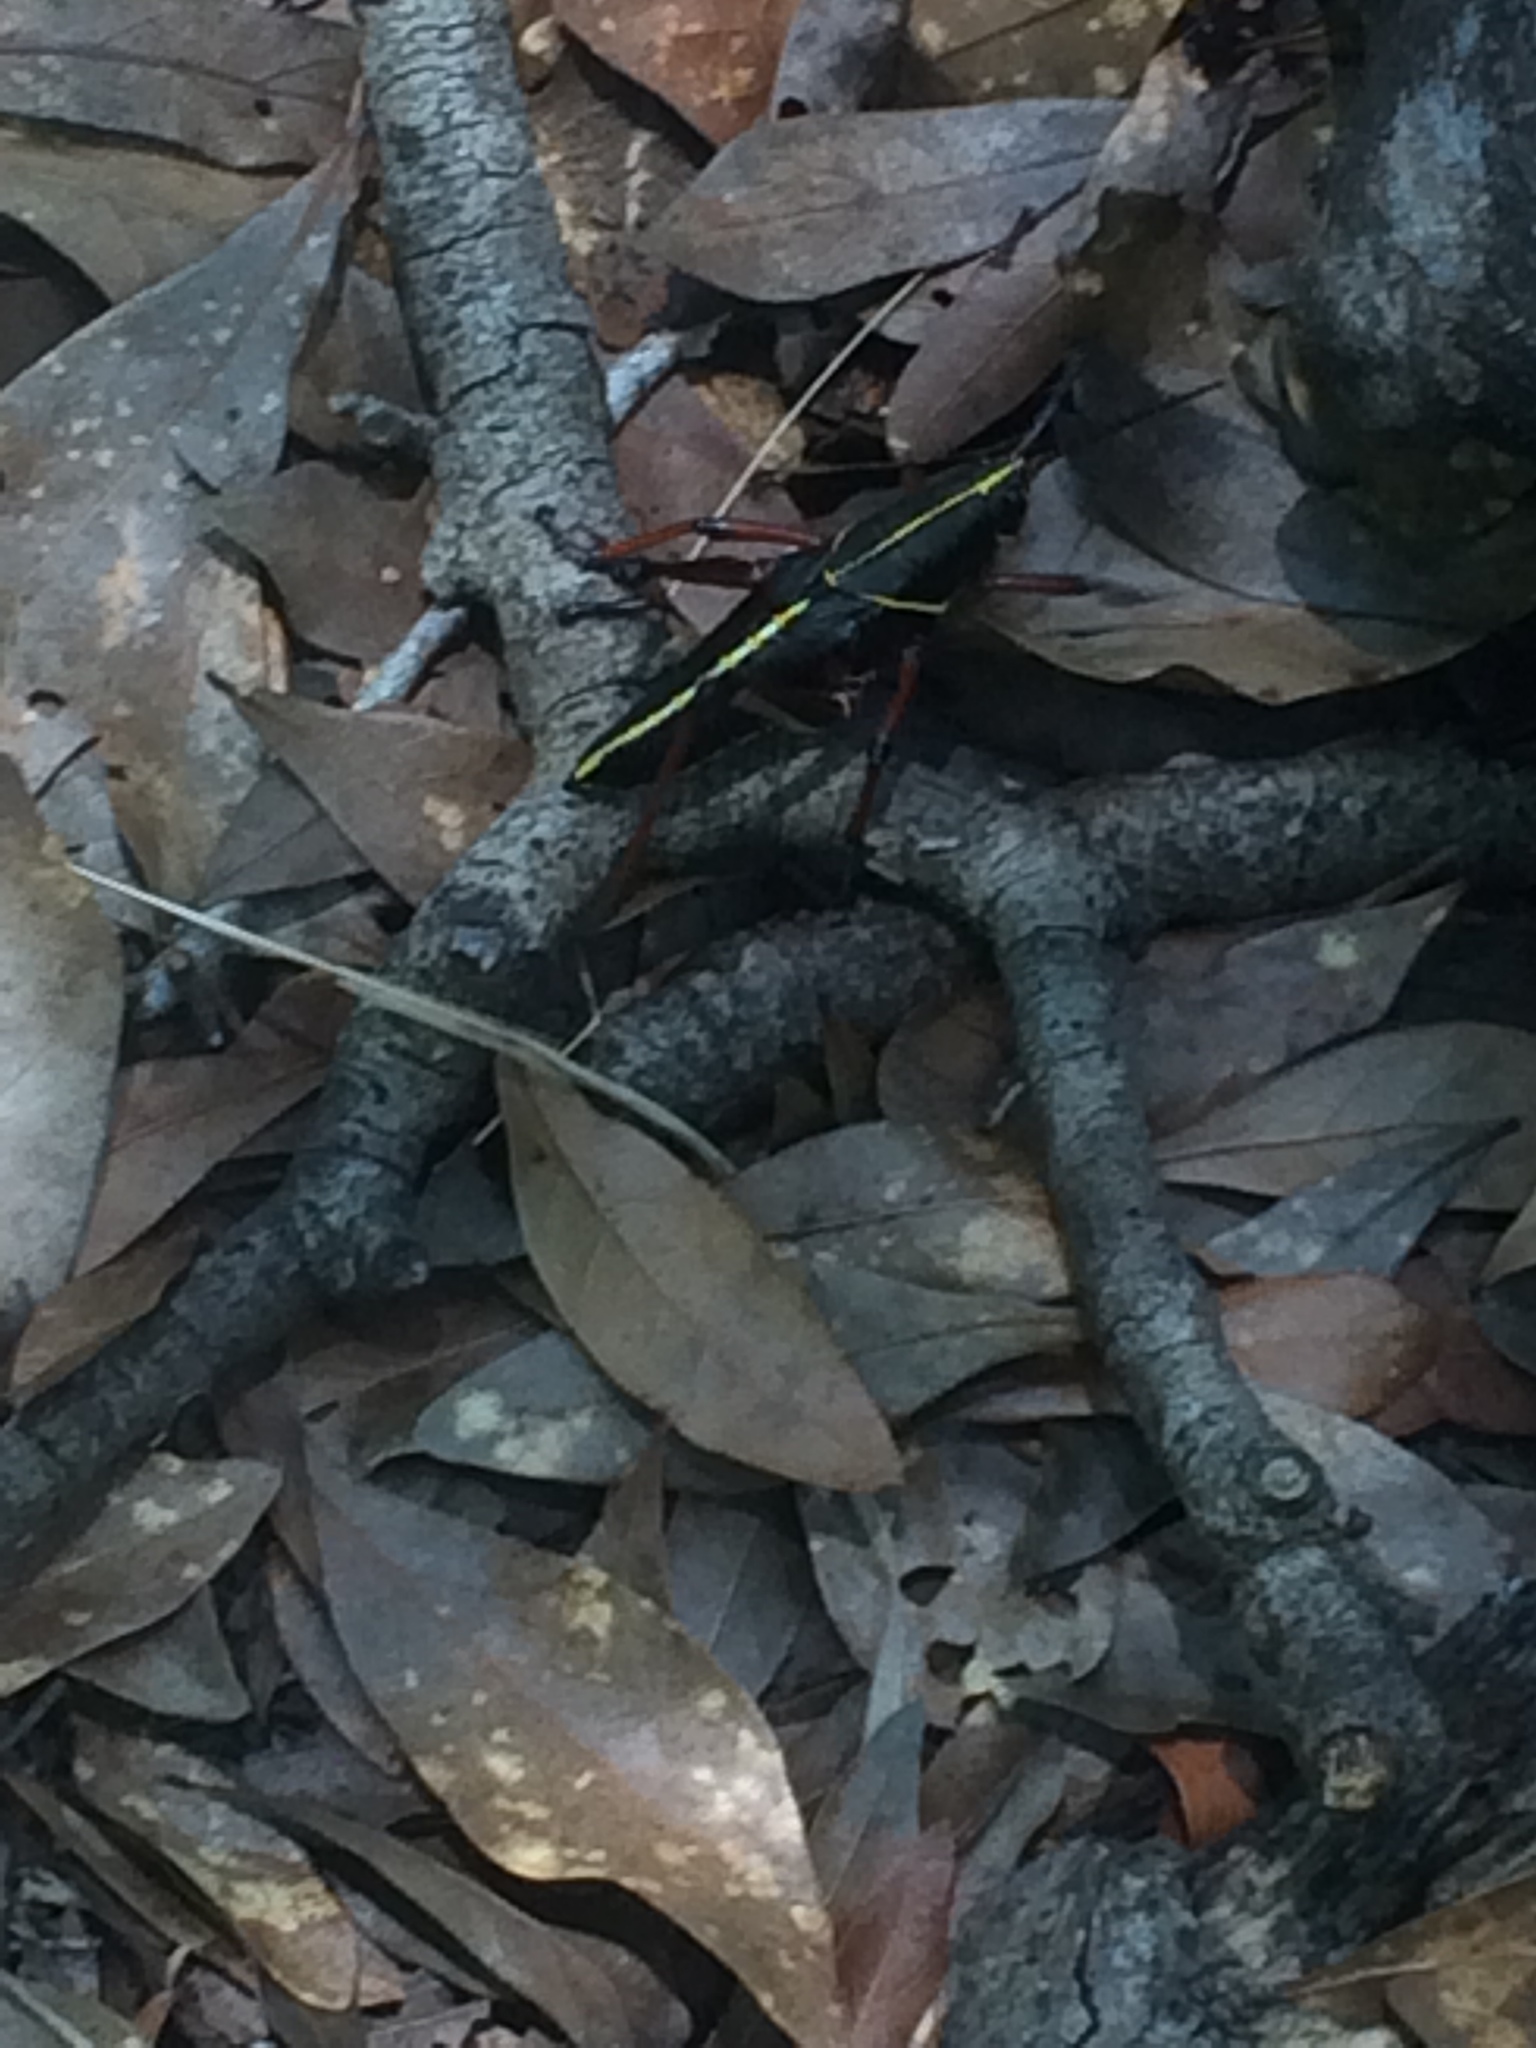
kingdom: Animalia
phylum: Arthropoda
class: Insecta
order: Orthoptera
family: Romaleidae
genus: Romalea
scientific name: Romalea microptera
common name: Eastern lubber grasshopper
